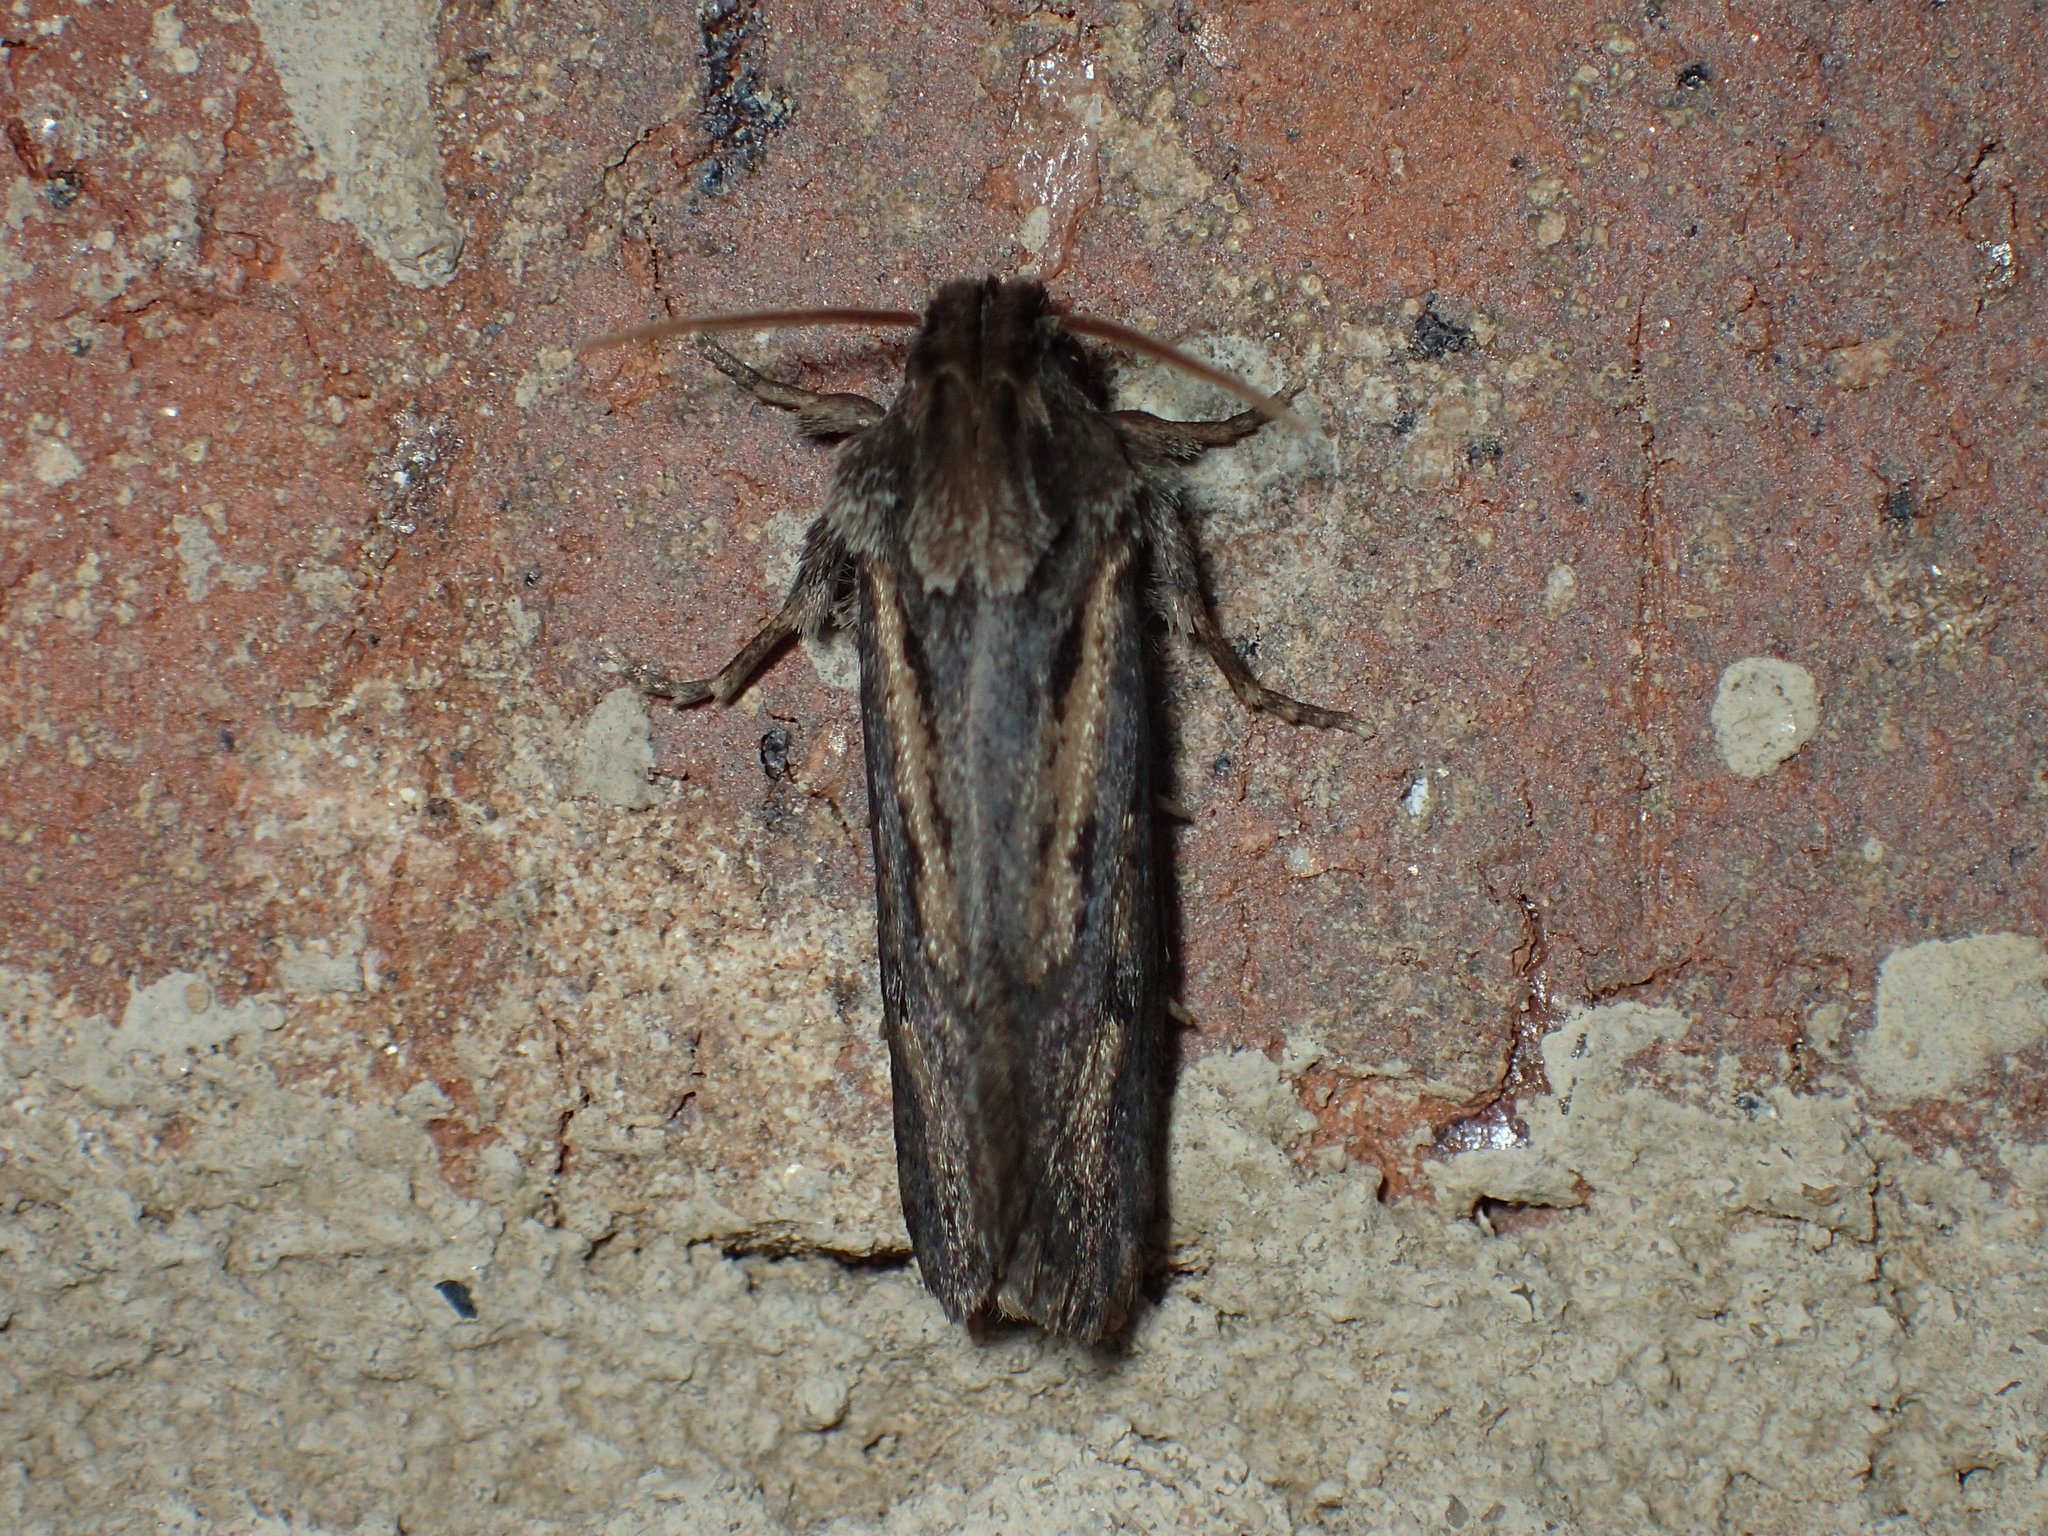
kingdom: Animalia
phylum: Arthropoda
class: Insecta
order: Lepidoptera
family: Tineidae
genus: Acrolophus
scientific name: Acrolophus popeanella
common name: Clemens' grass tubeworm moth
